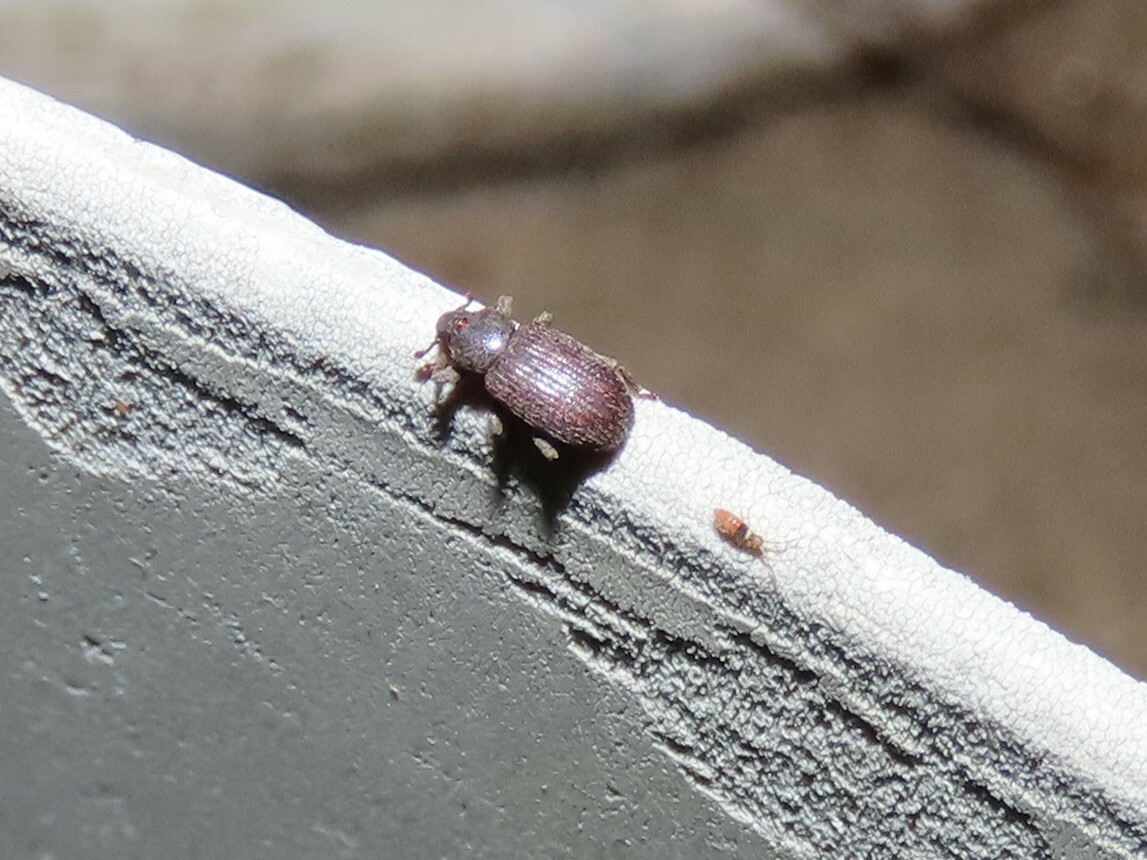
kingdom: Animalia
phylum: Arthropoda
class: Insecta
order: Coleoptera
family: Curculionidae
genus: Hormops
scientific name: Hormops abducens
